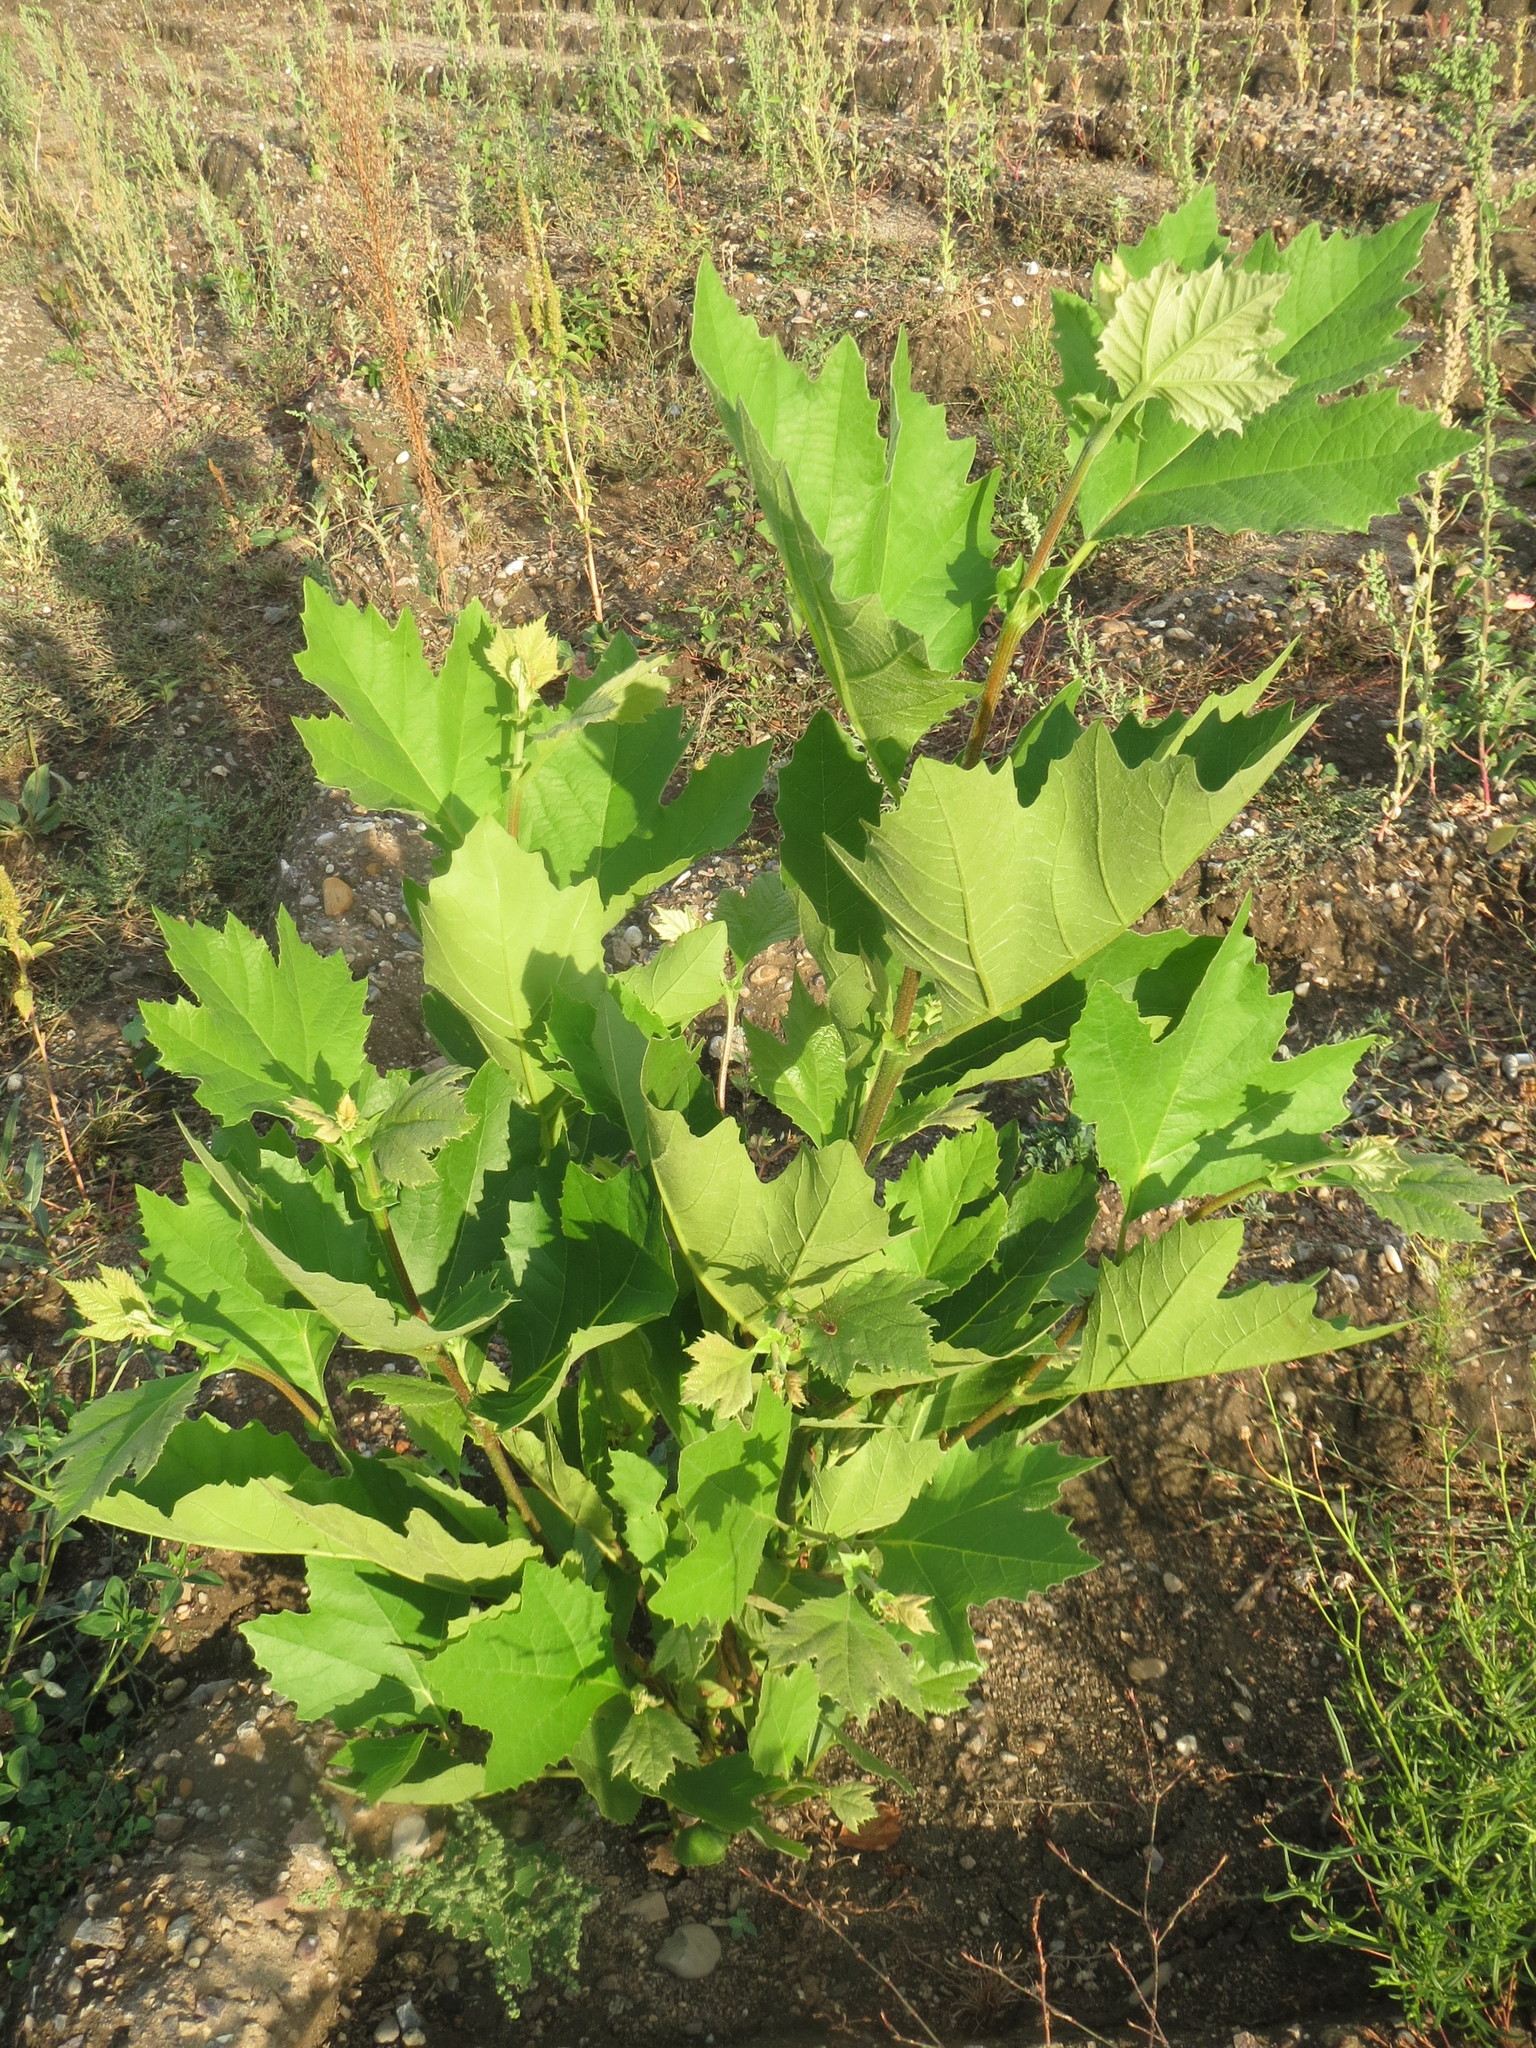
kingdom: Plantae
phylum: Tracheophyta
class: Magnoliopsida
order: Proteales
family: Platanaceae
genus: Platanus
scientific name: Platanus hispanica
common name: London plane
